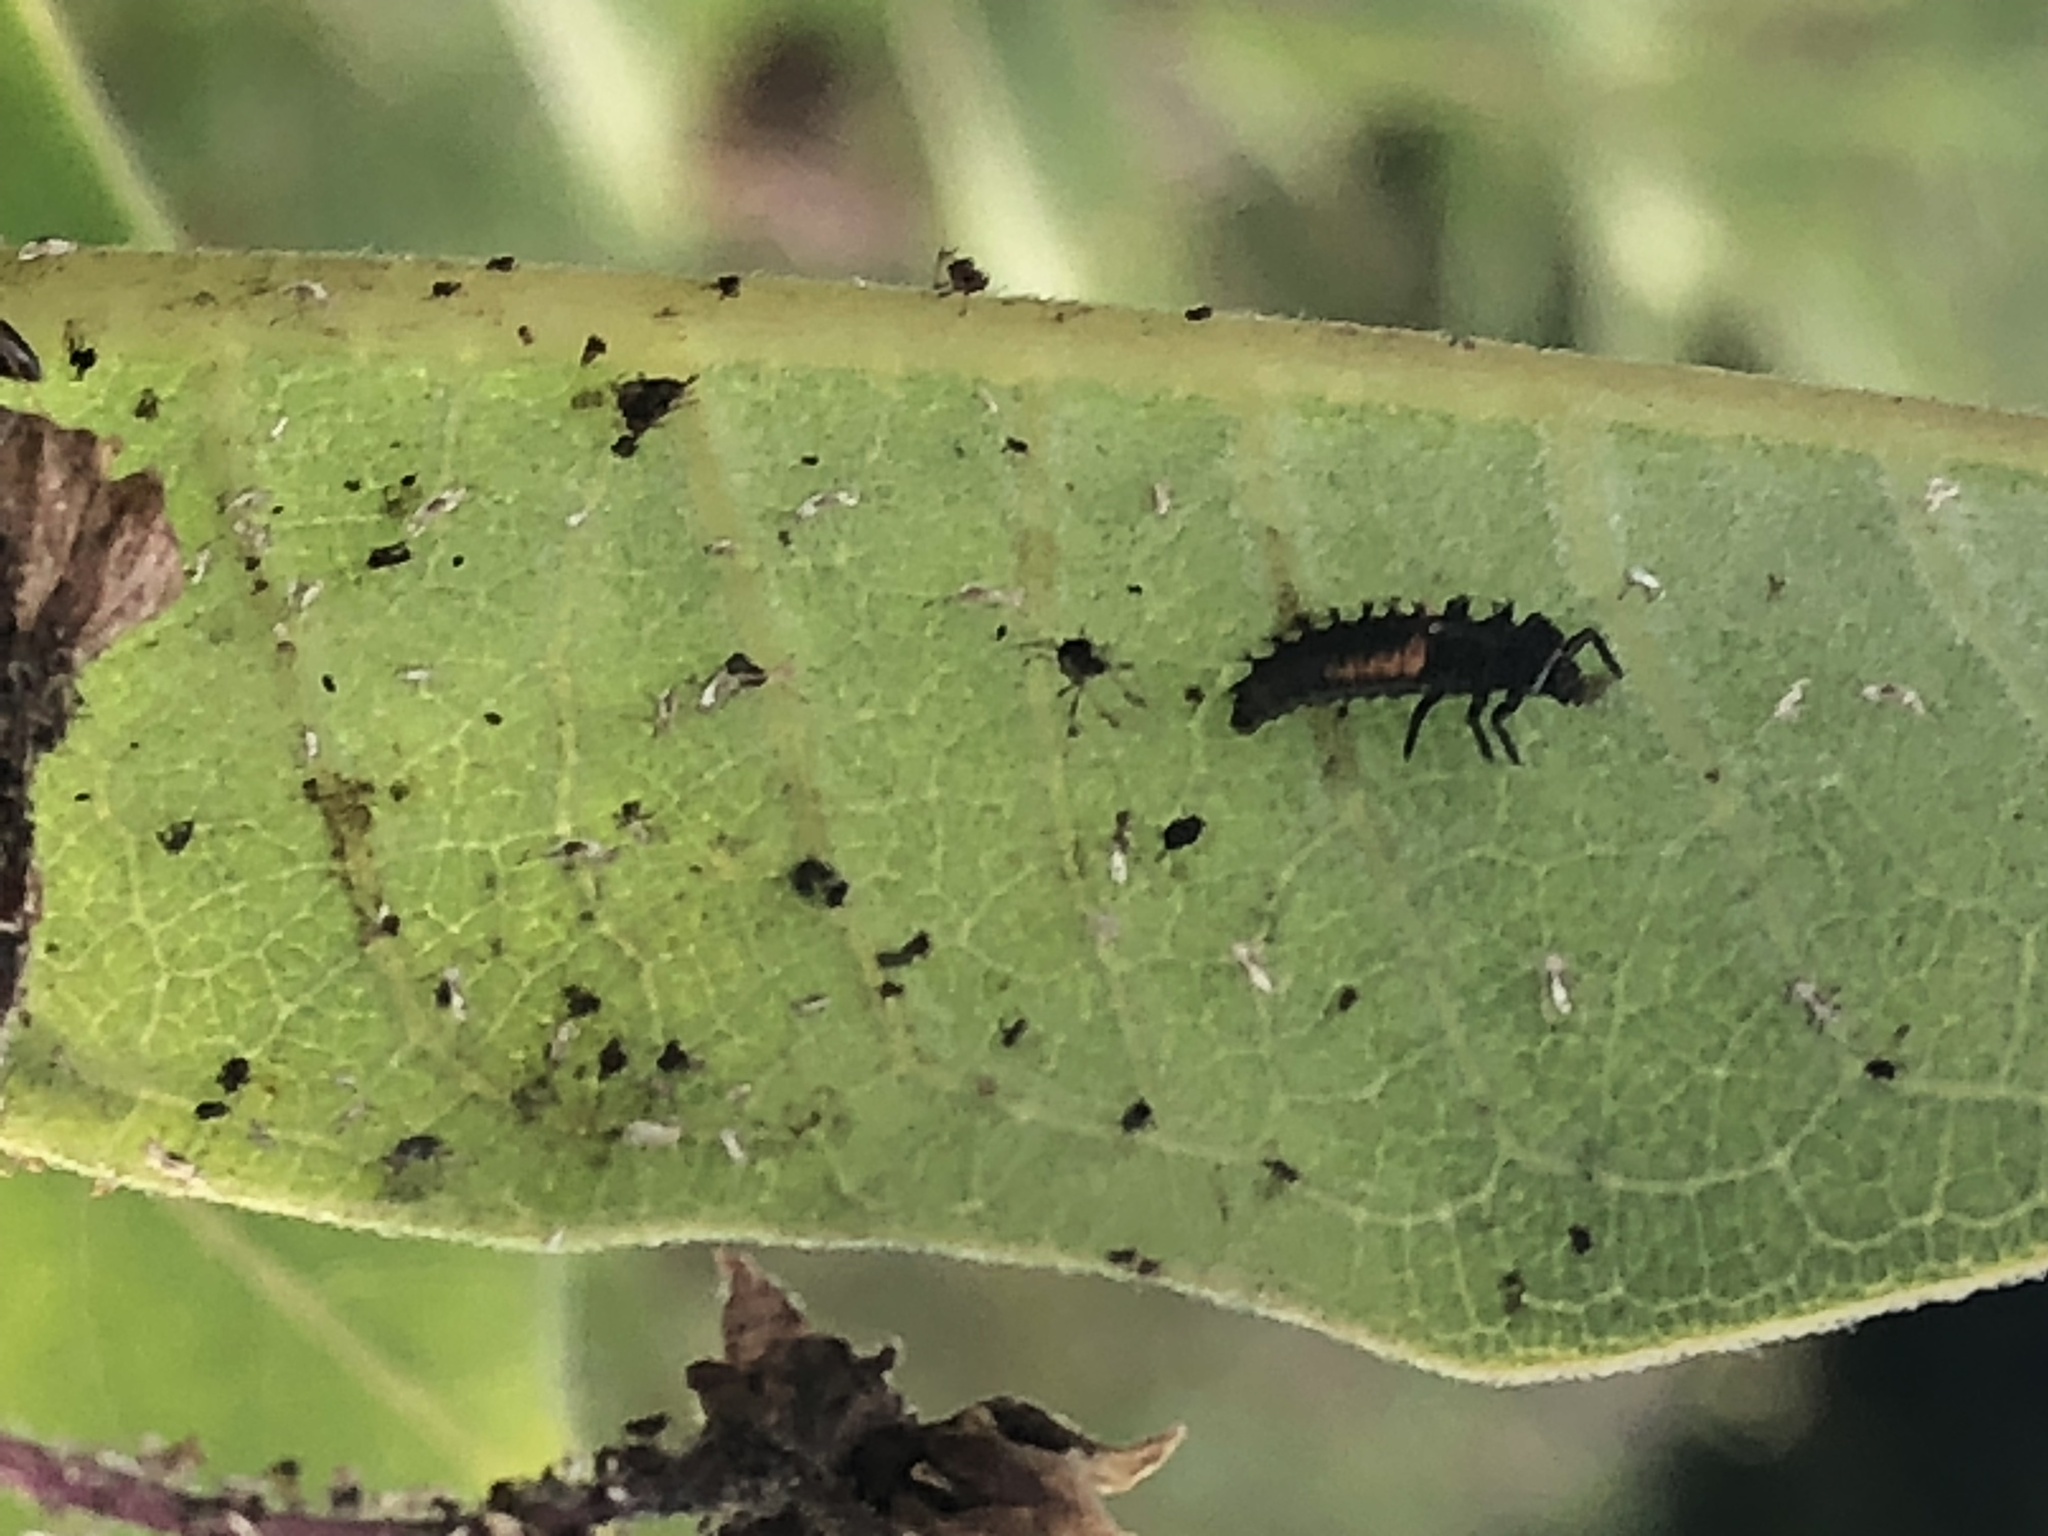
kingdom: Animalia
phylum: Arthropoda
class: Insecta
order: Coleoptera
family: Coccinellidae
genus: Harmonia
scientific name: Harmonia axyridis
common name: Harlequin ladybird
